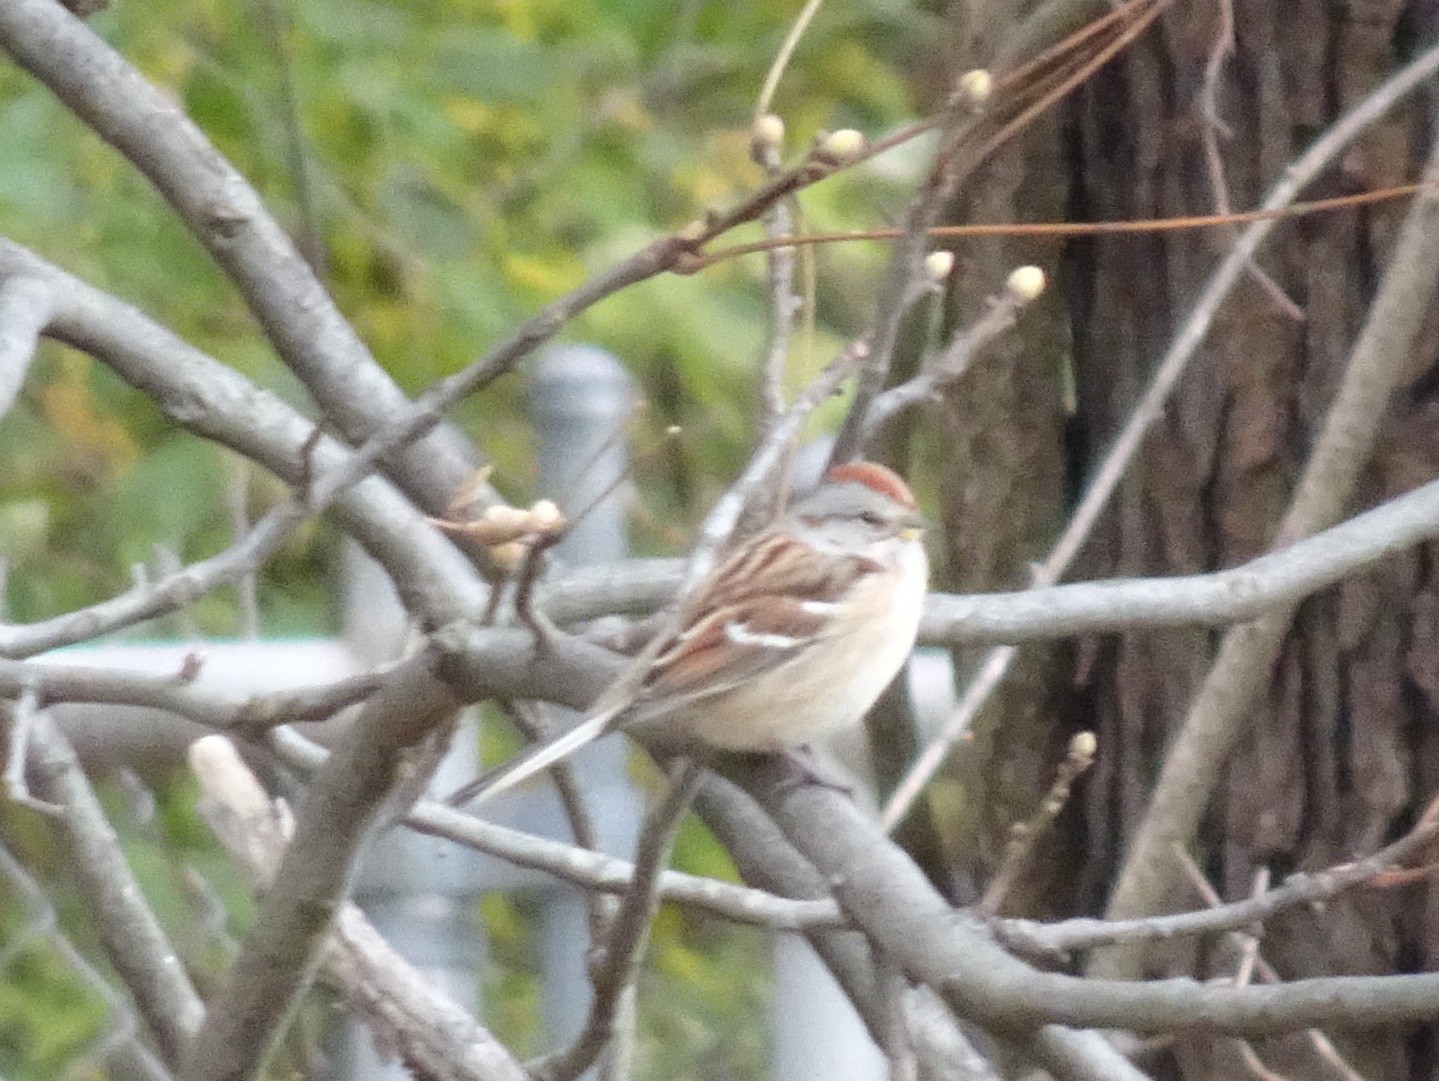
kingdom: Animalia
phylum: Chordata
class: Aves
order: Passeriformes
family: Passerellidae
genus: Spizelloides
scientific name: Spizelloides arborea
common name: American tree sparrow
